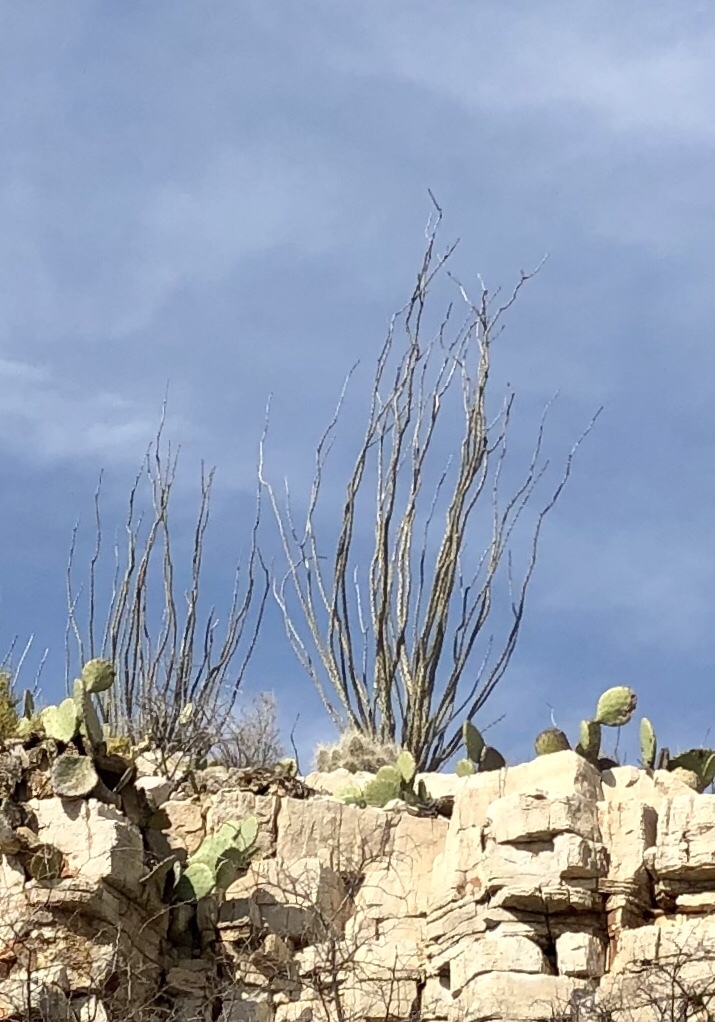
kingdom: Plantae
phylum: Tracheophyta
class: Magnoliopsida
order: Ericales
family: Fouquieriaceae
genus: Fouquieria
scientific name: Fouquieria splendens
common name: Vine-cactus
